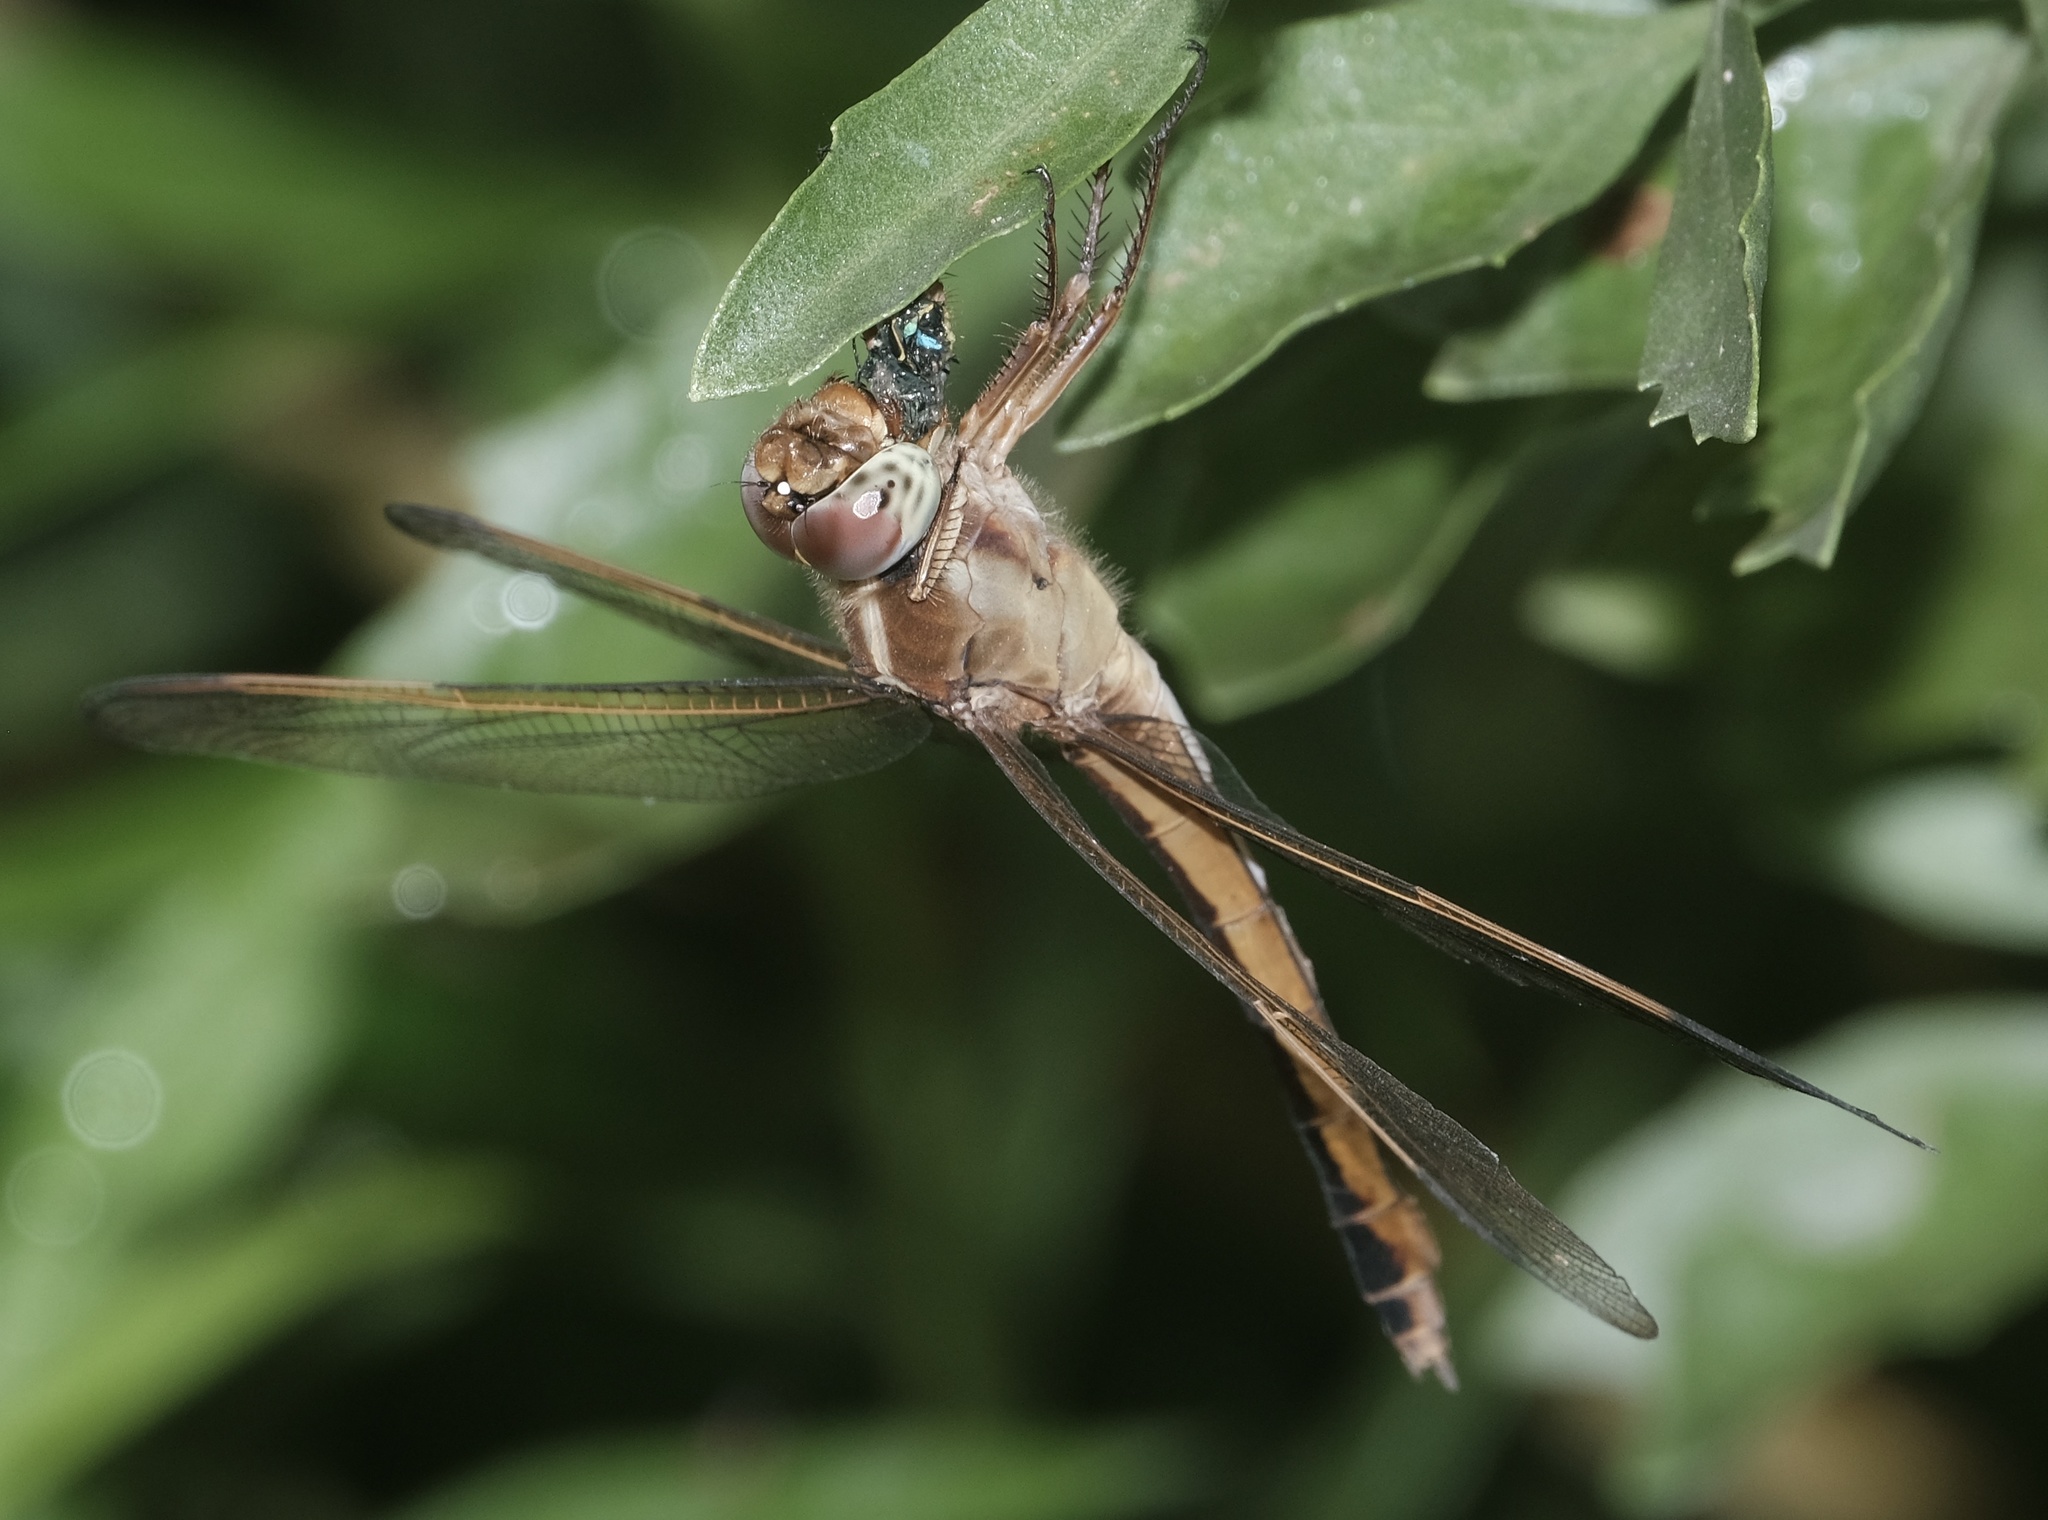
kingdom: Animalia
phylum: Arthropoda
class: Insecta
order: Odonata
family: Libellulidae
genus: Libellula
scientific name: Libellula needhami
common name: Needham's skimmer
